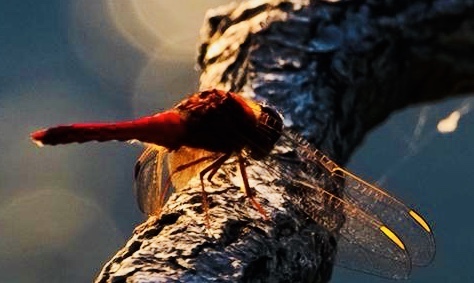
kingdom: Animalia
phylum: Arthropoda
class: Insecta
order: Odonata
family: Libellulidae
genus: Crocothemis
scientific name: Crocothemis erythraea
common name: Scarlet dragonfly
